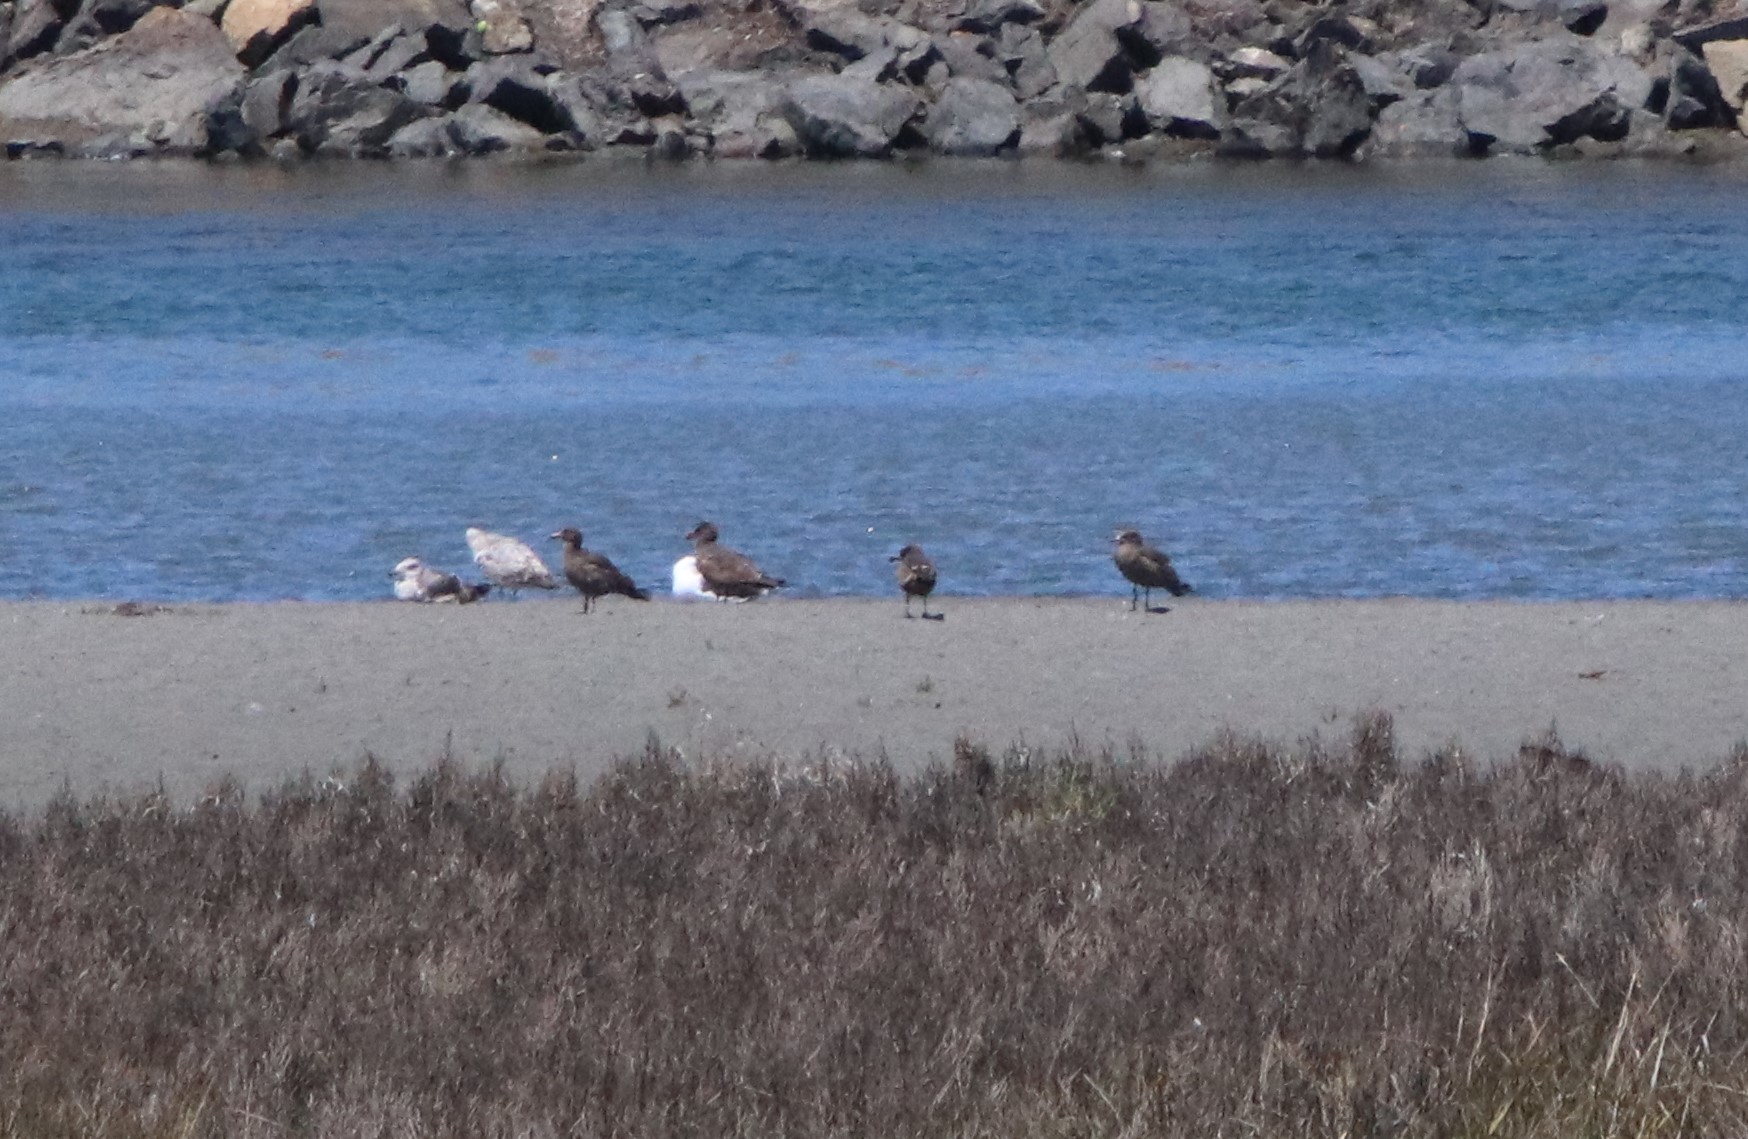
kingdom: Animalia
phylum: Chordata
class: Aves
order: Charadriiformes
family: Laridae
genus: Larus
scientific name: Larus heermanni
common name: Heermann's gull
